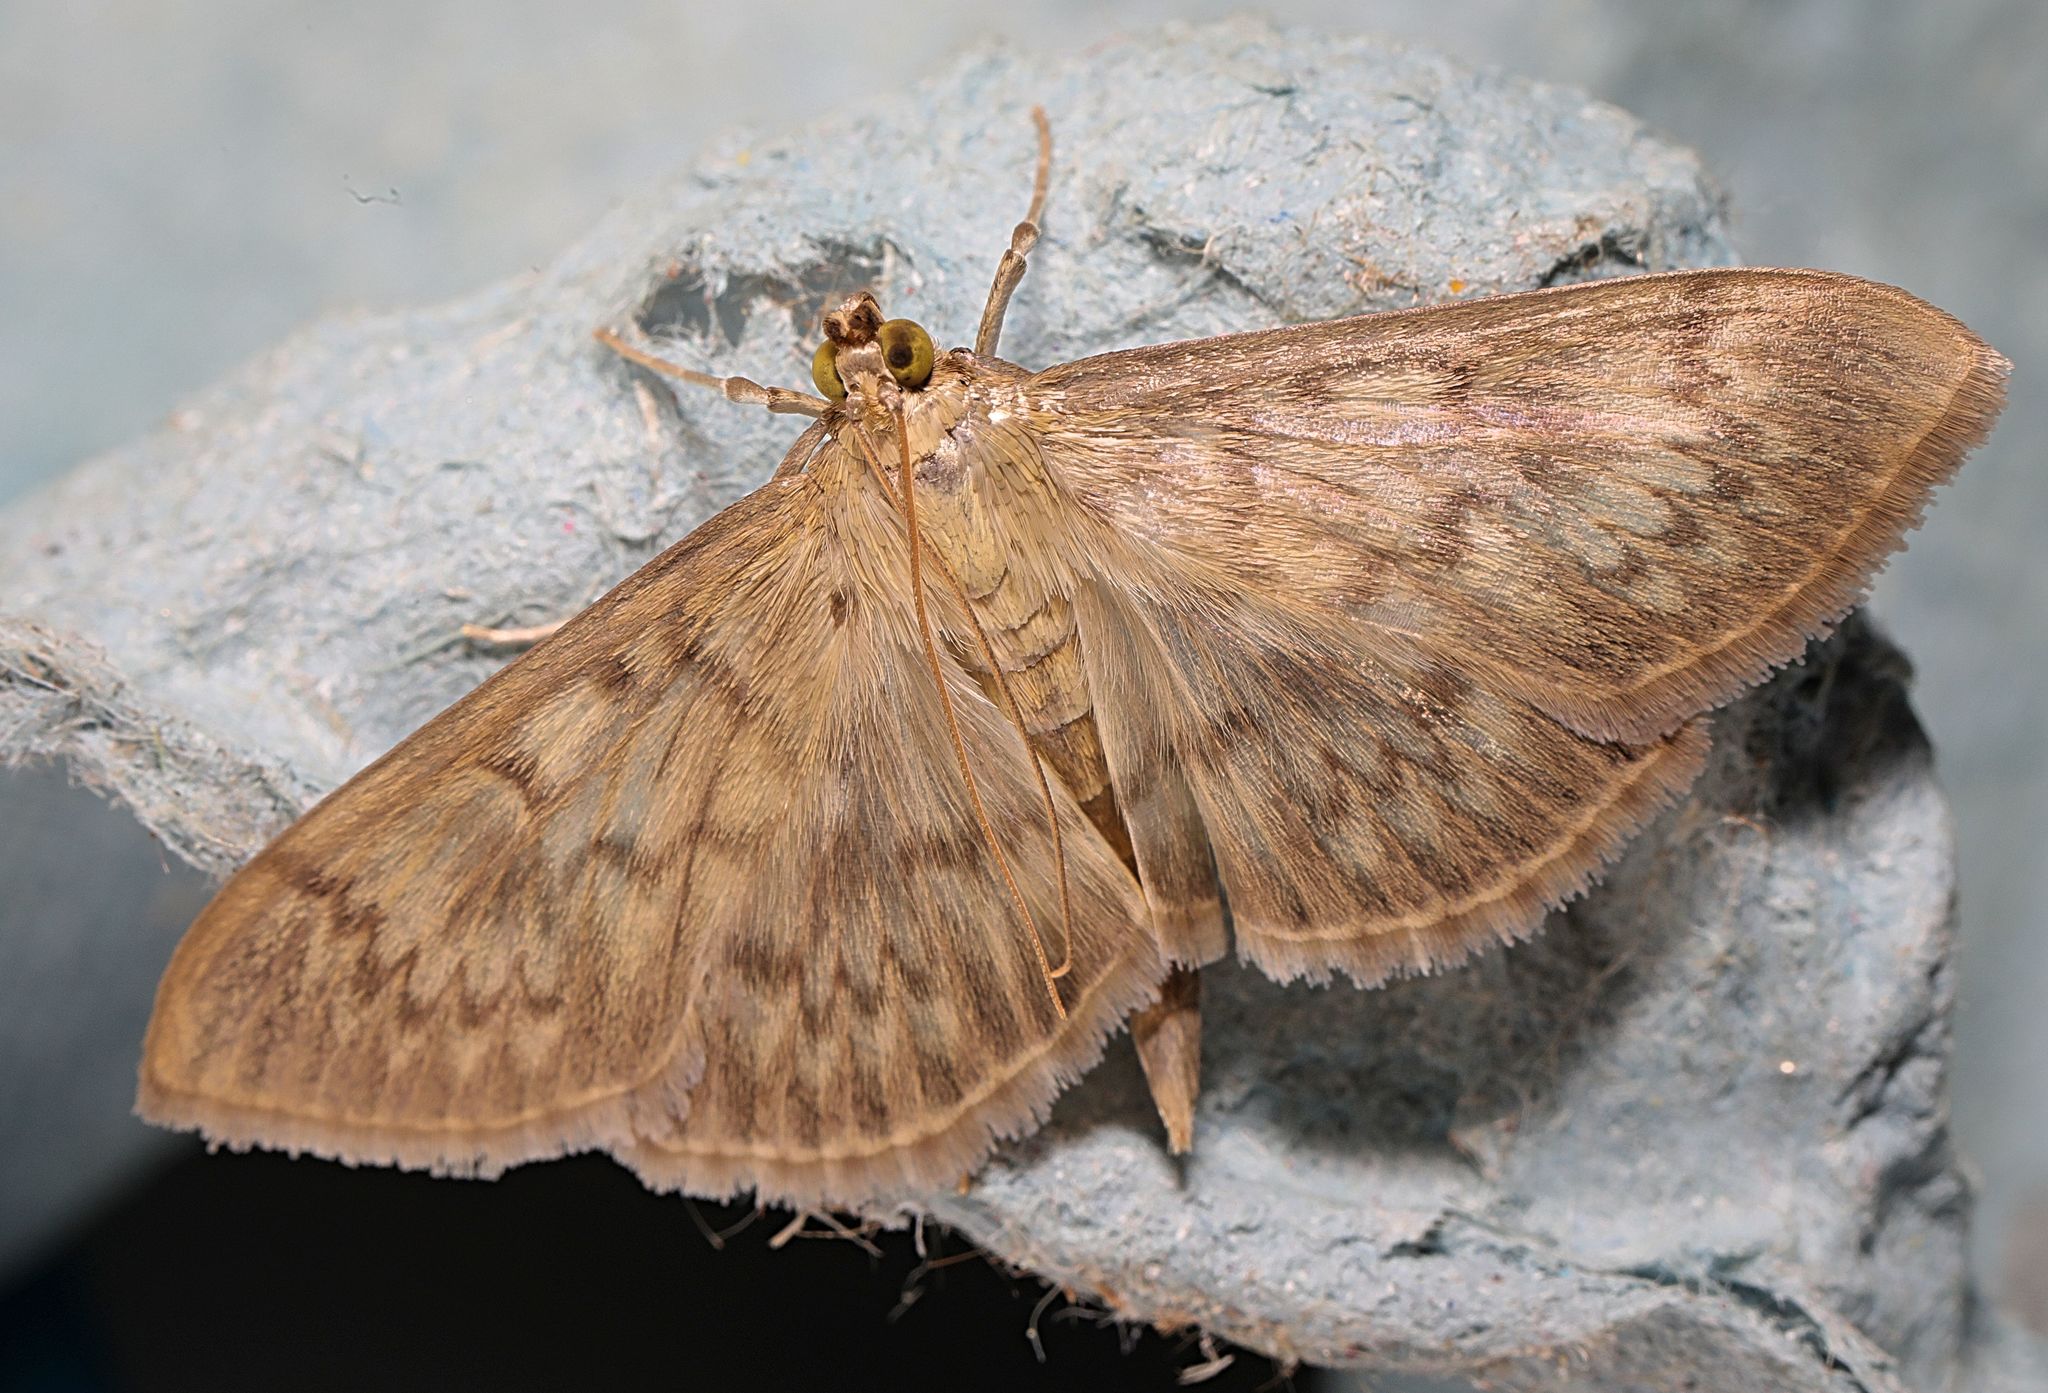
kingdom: Animalia
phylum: Arthropoda
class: Insecta
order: Lepidoptera
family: Crambidae
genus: Patania
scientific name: Patania ruralis
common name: Mother of pearl
